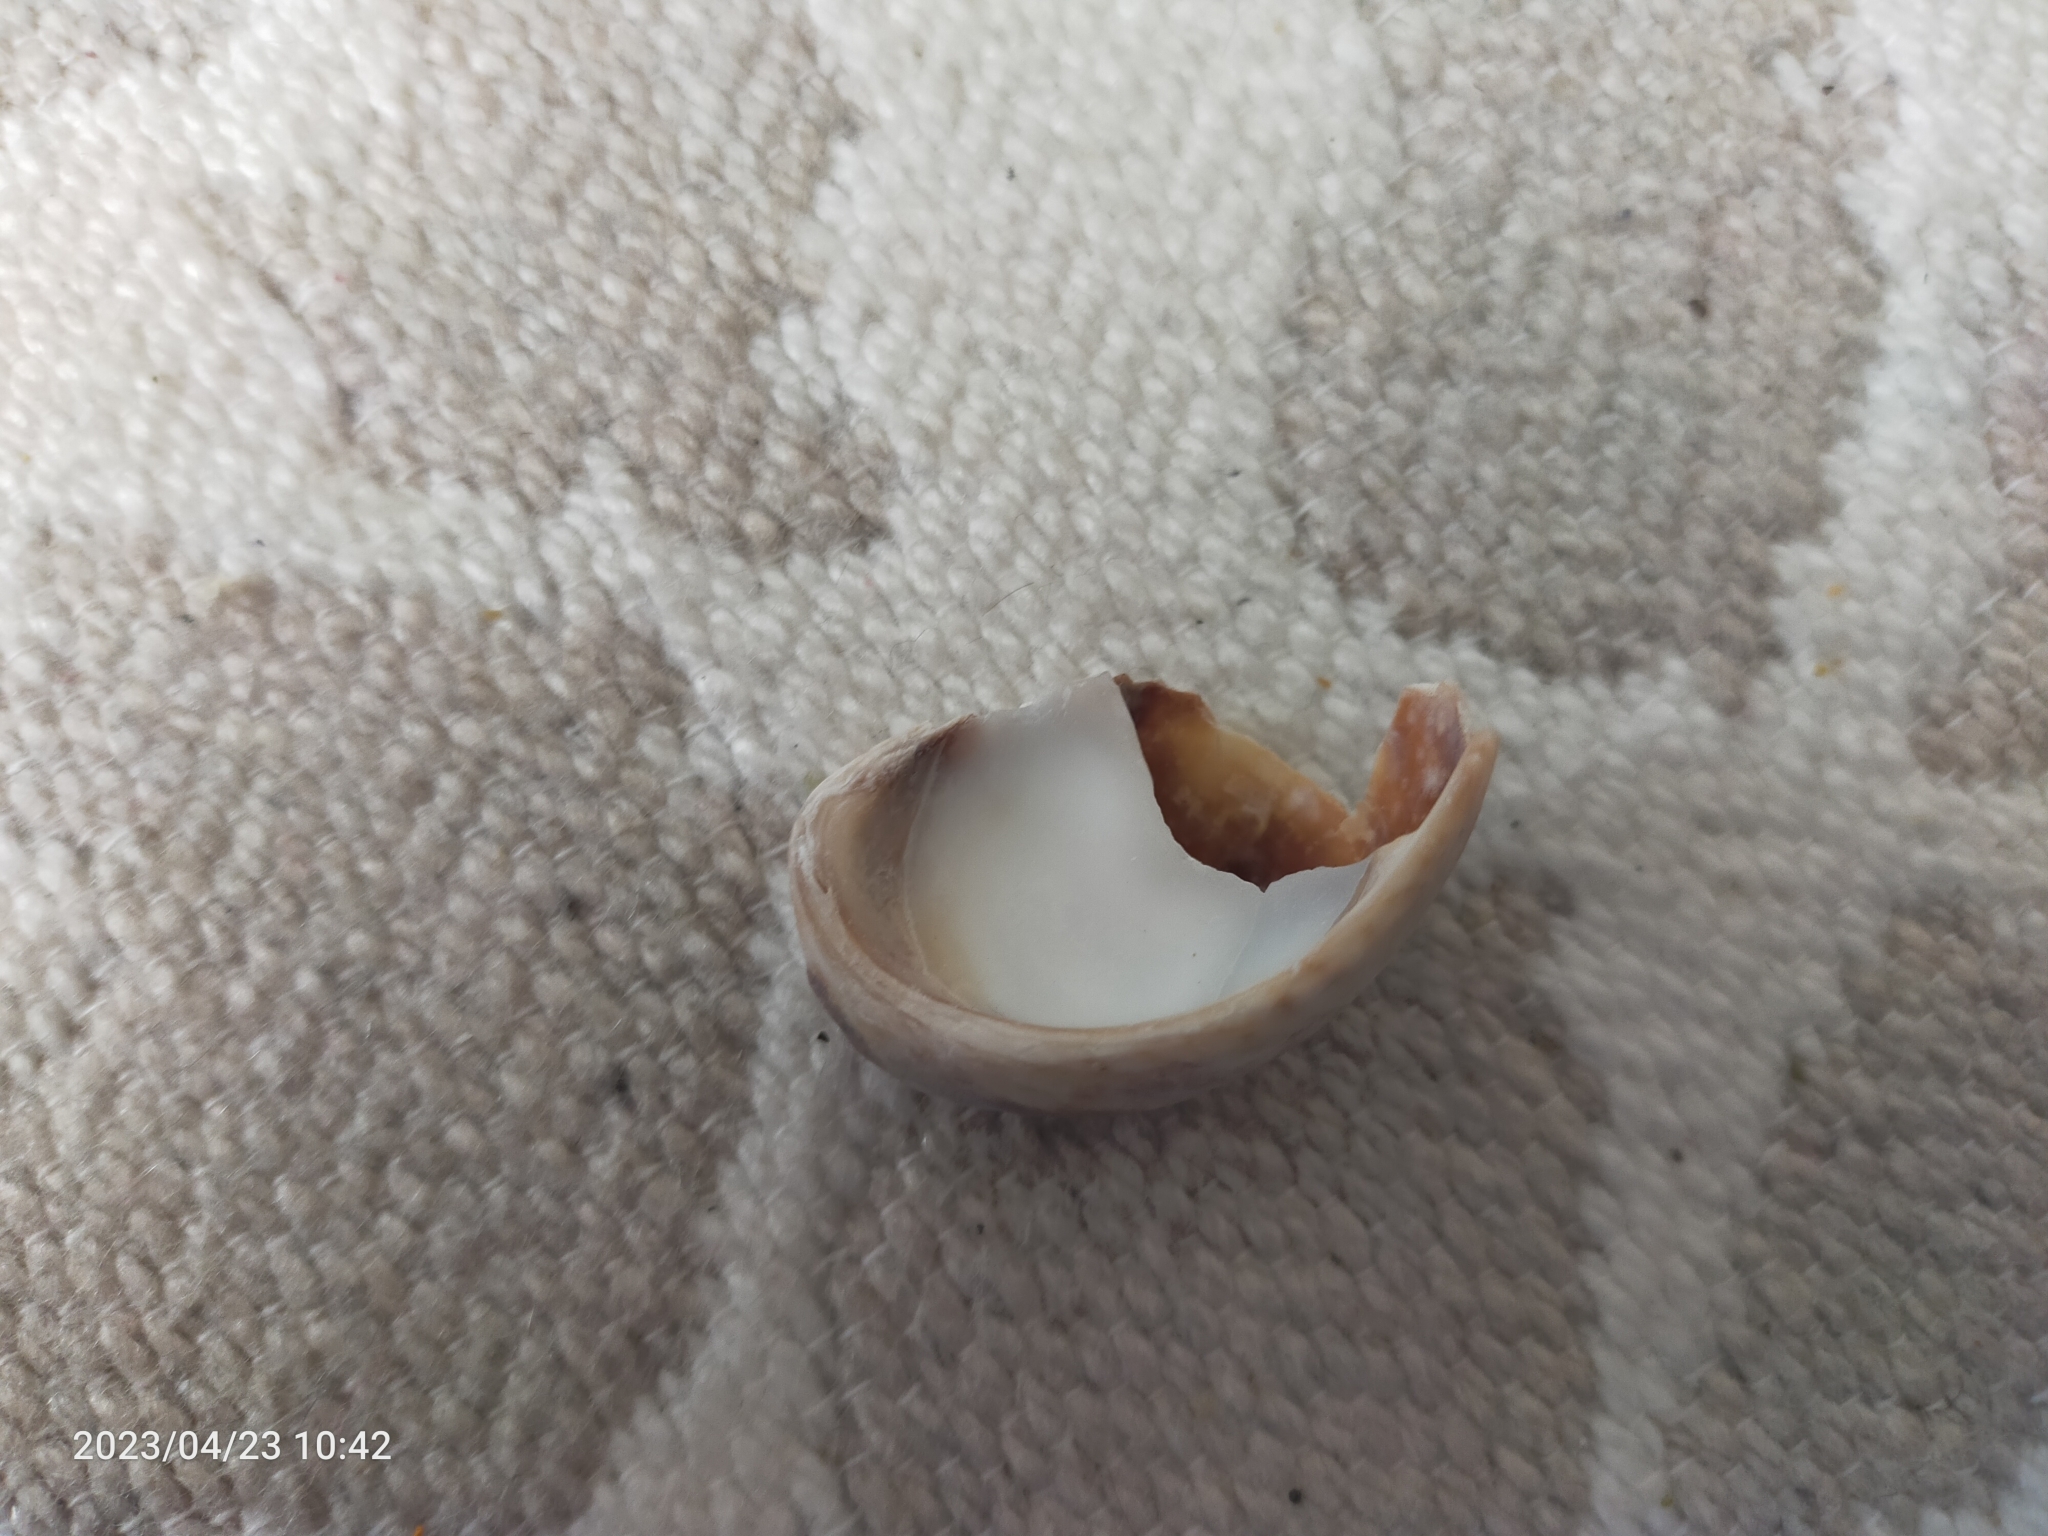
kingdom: Animalia
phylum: Mollusca
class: Gastropoda
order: Littorinimorpha
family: Calyptraeidae
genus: Crepidula
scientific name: Crepidula fornicata
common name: Slipper limpet
